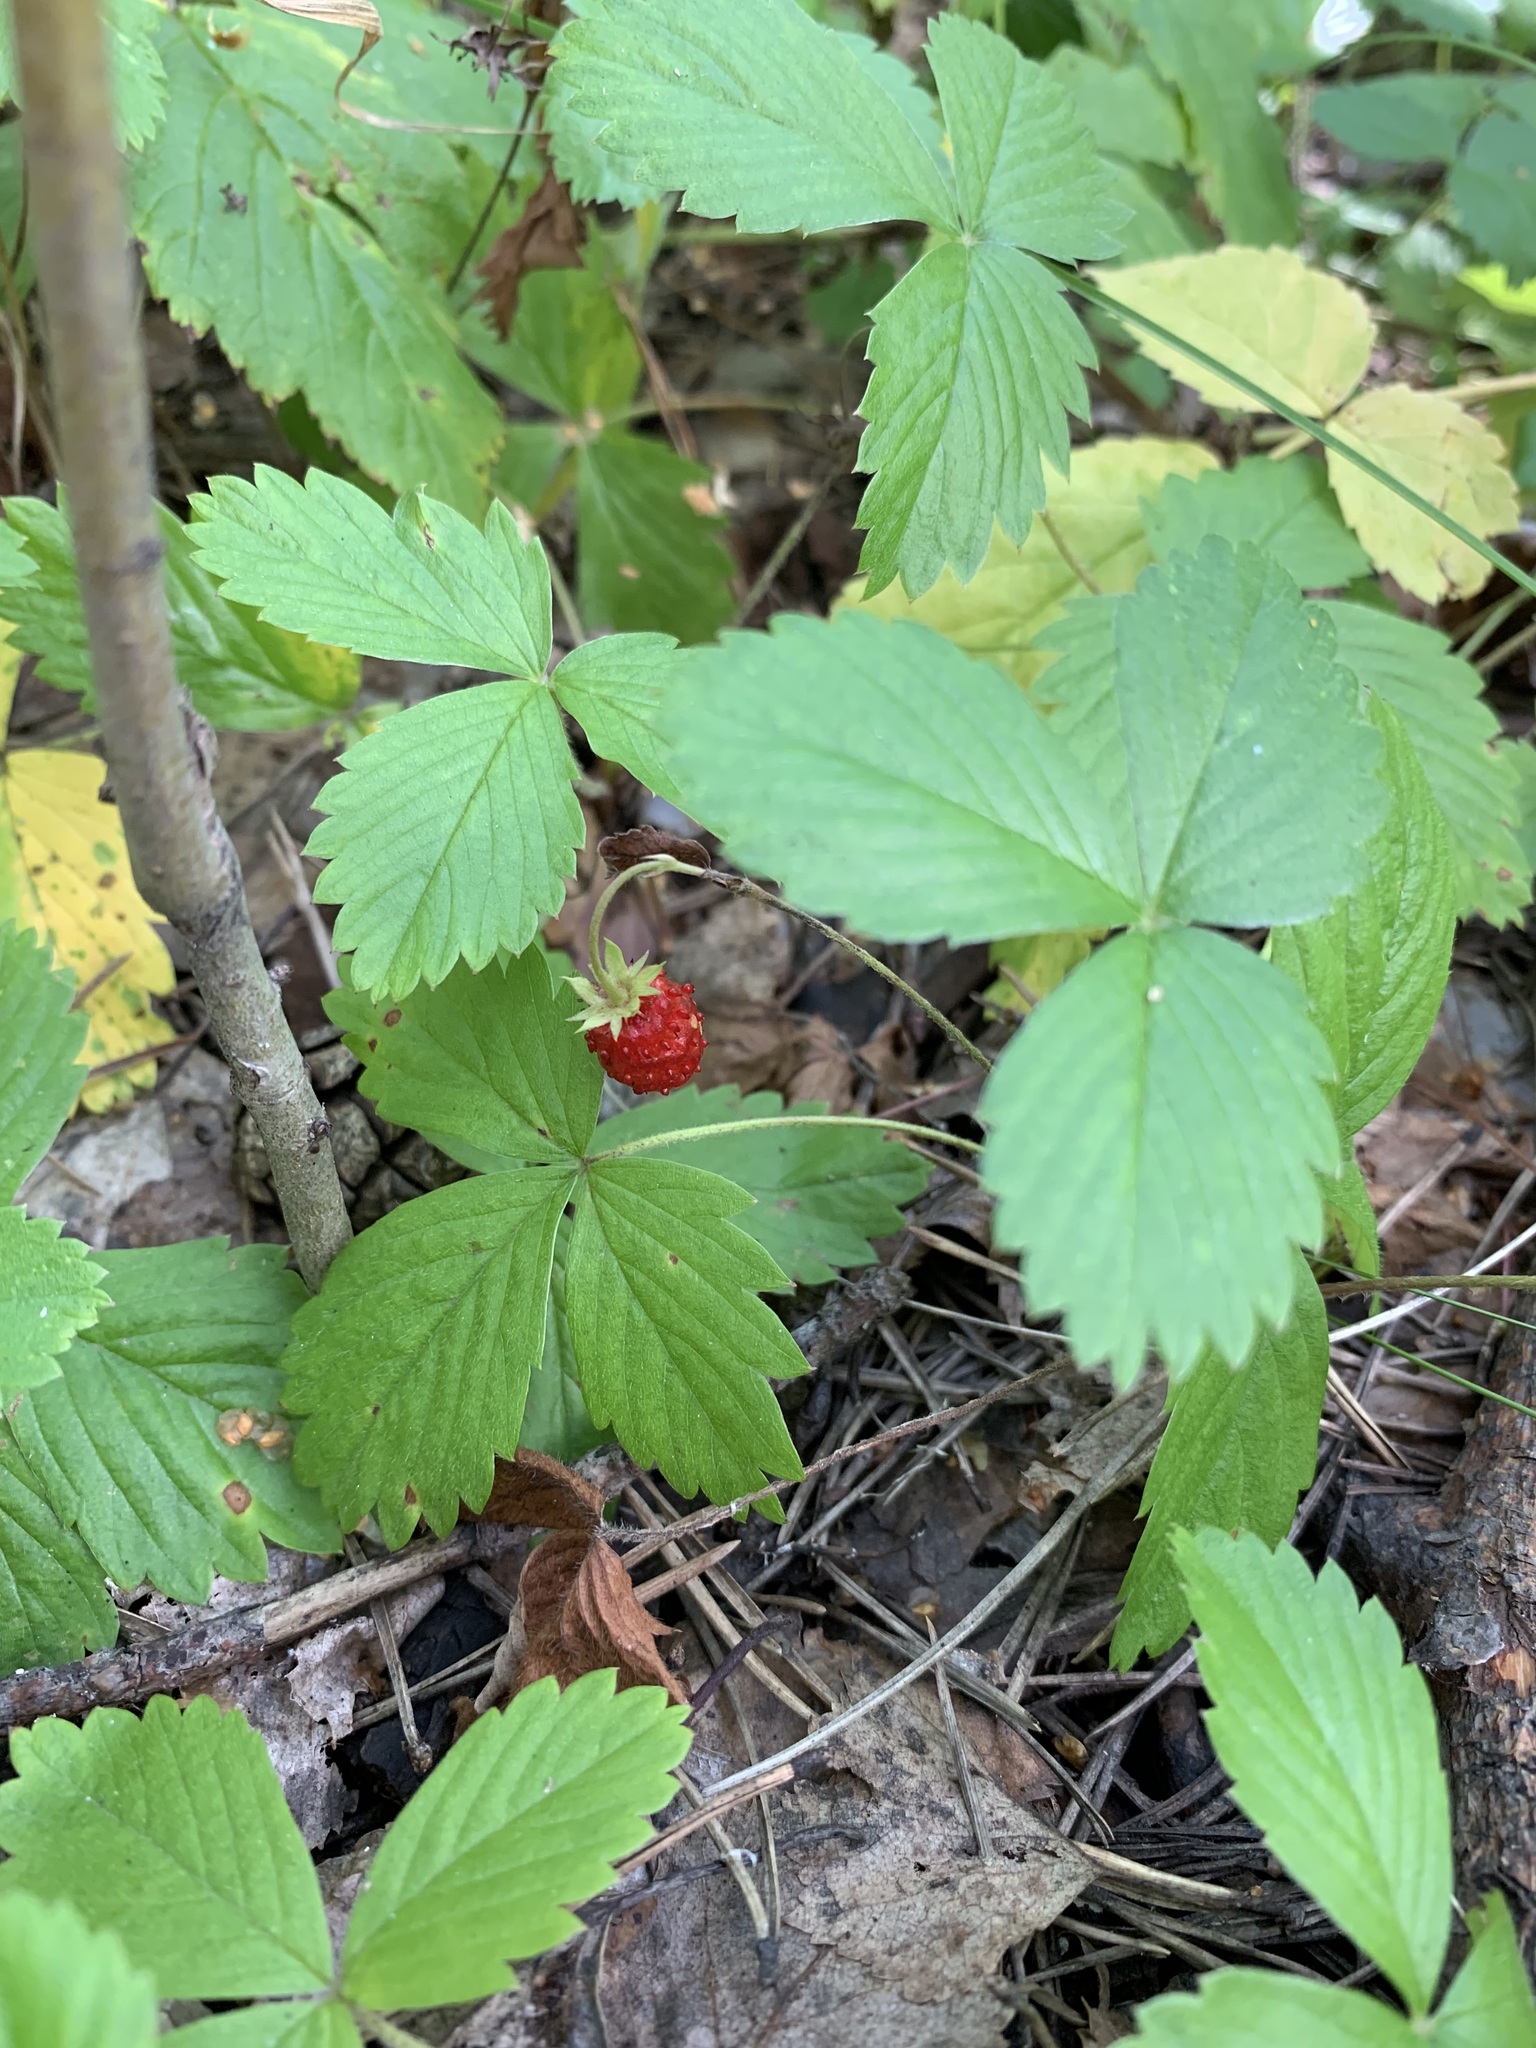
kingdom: Plantae
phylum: Tracheophyta
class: Magnoliopsida
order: Rosales
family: Rosaceae
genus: Fragaria
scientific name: Fragaria vesca
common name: Wild strawberry
